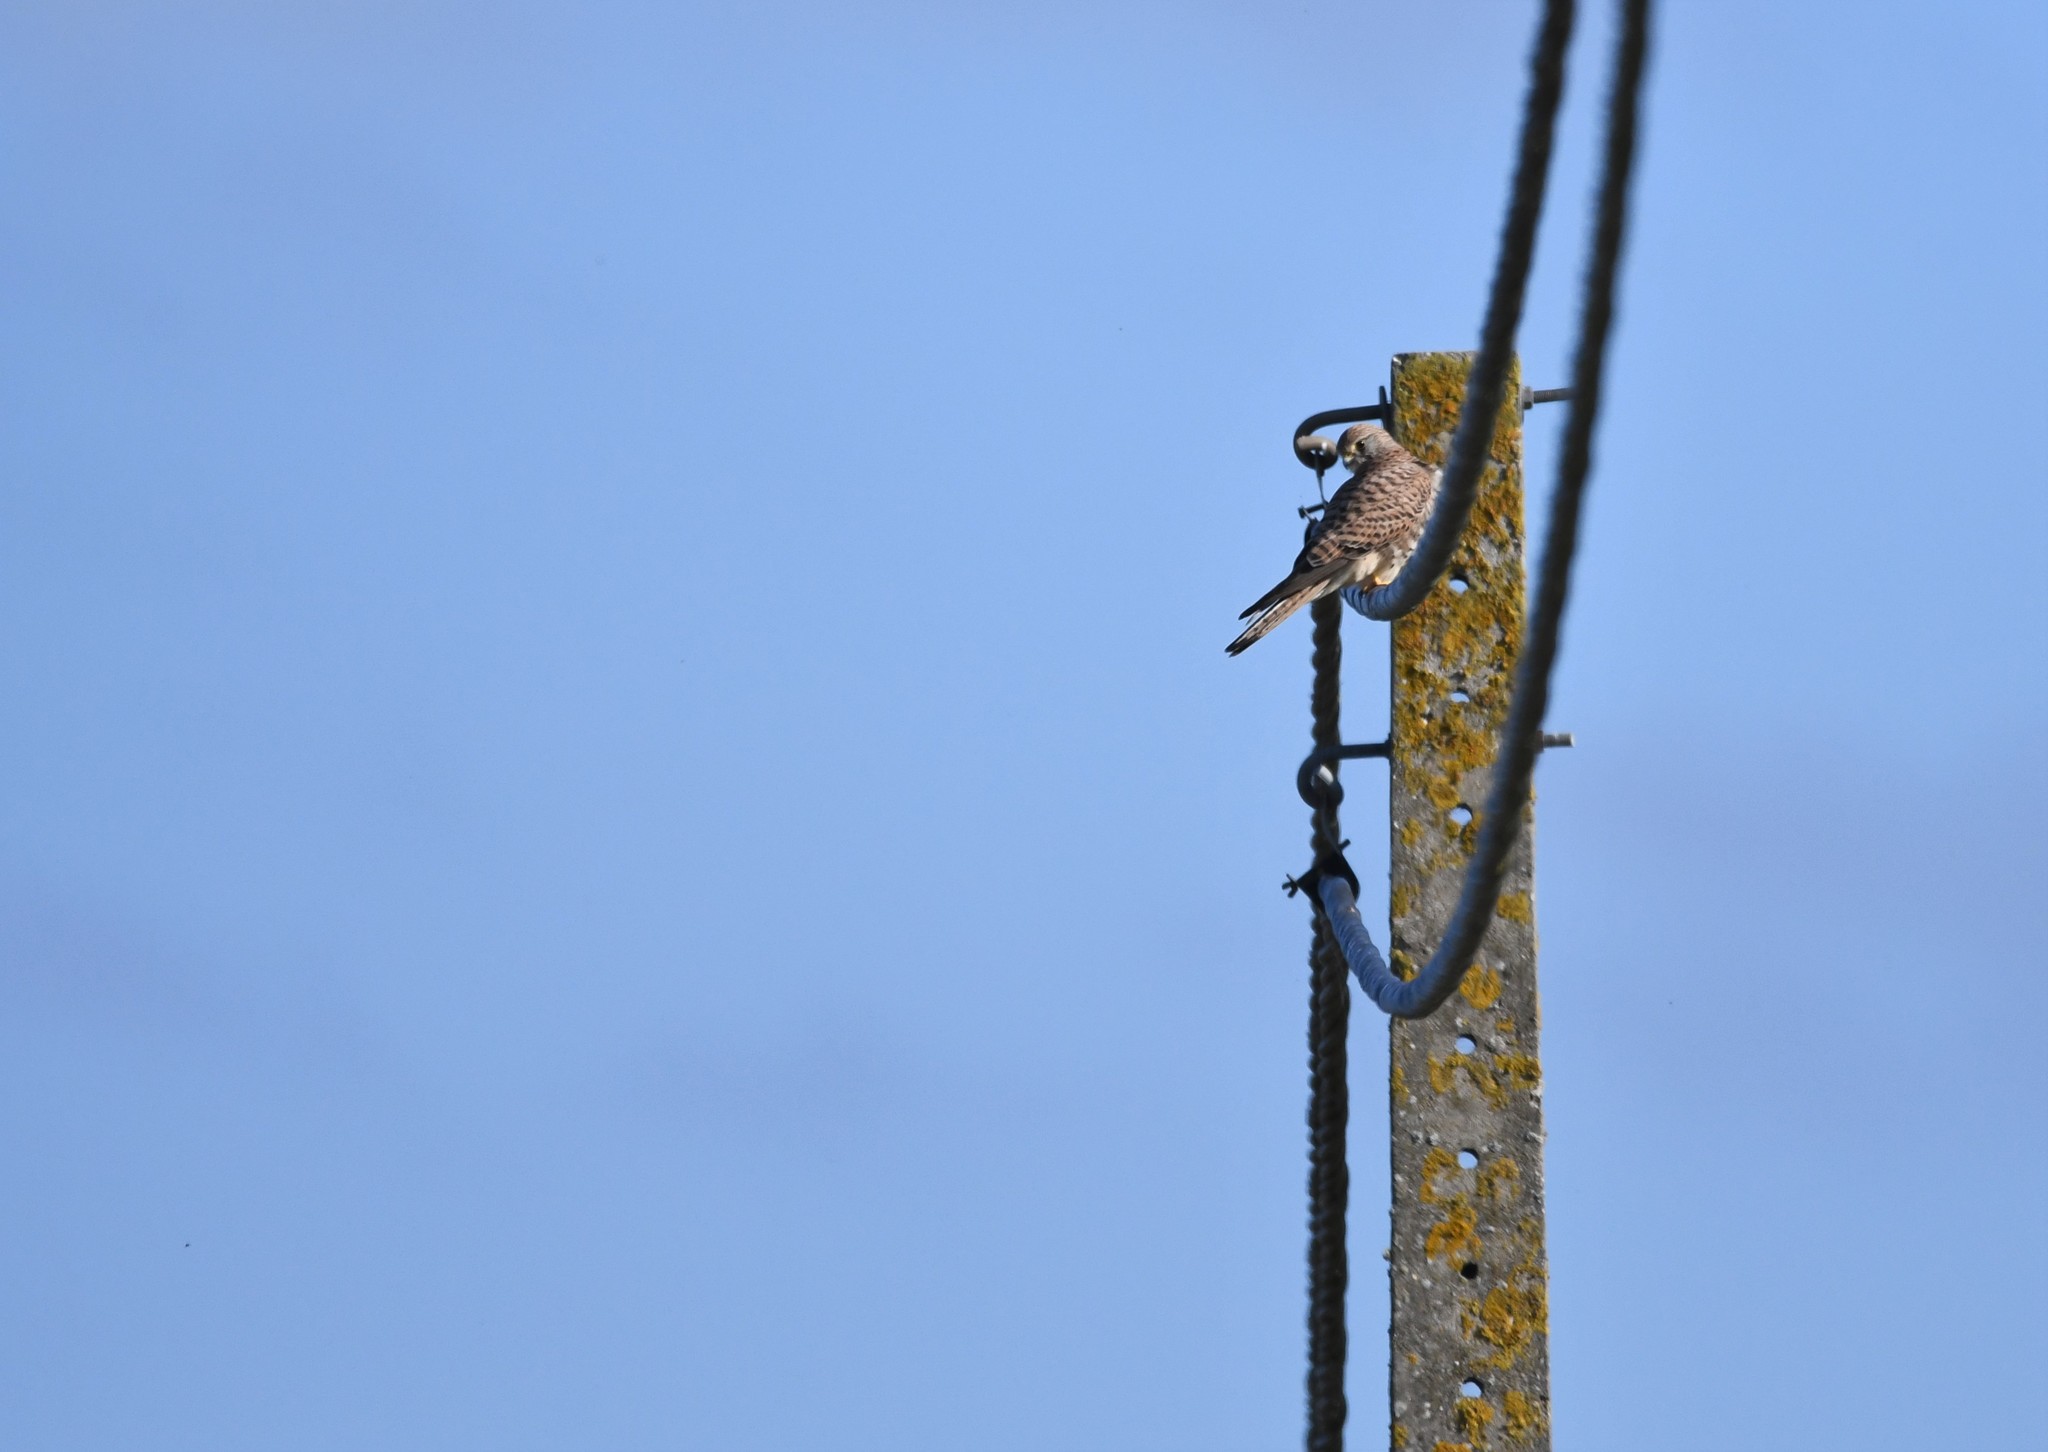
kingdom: Animalia
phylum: Chordata
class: Aves
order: Falconiformes
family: Falconidae
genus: Falco
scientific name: Falco tinnunculus
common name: Common kestrel
